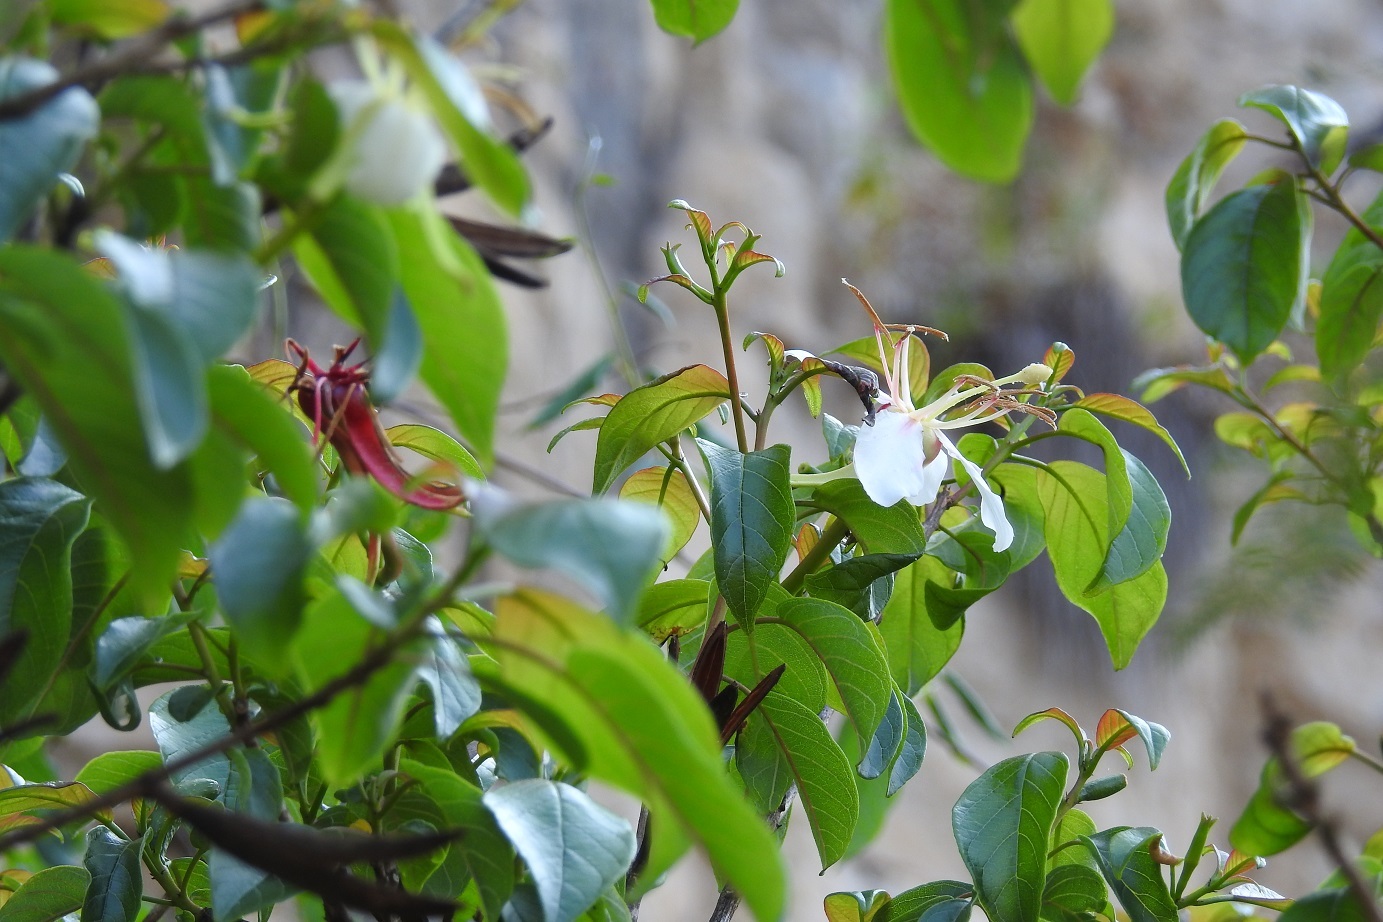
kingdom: Plantae
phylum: Tracheophyta
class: Magnoliopsida
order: Myrtales
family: Onagraceae
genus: Hauya
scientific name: Hauya elegans
